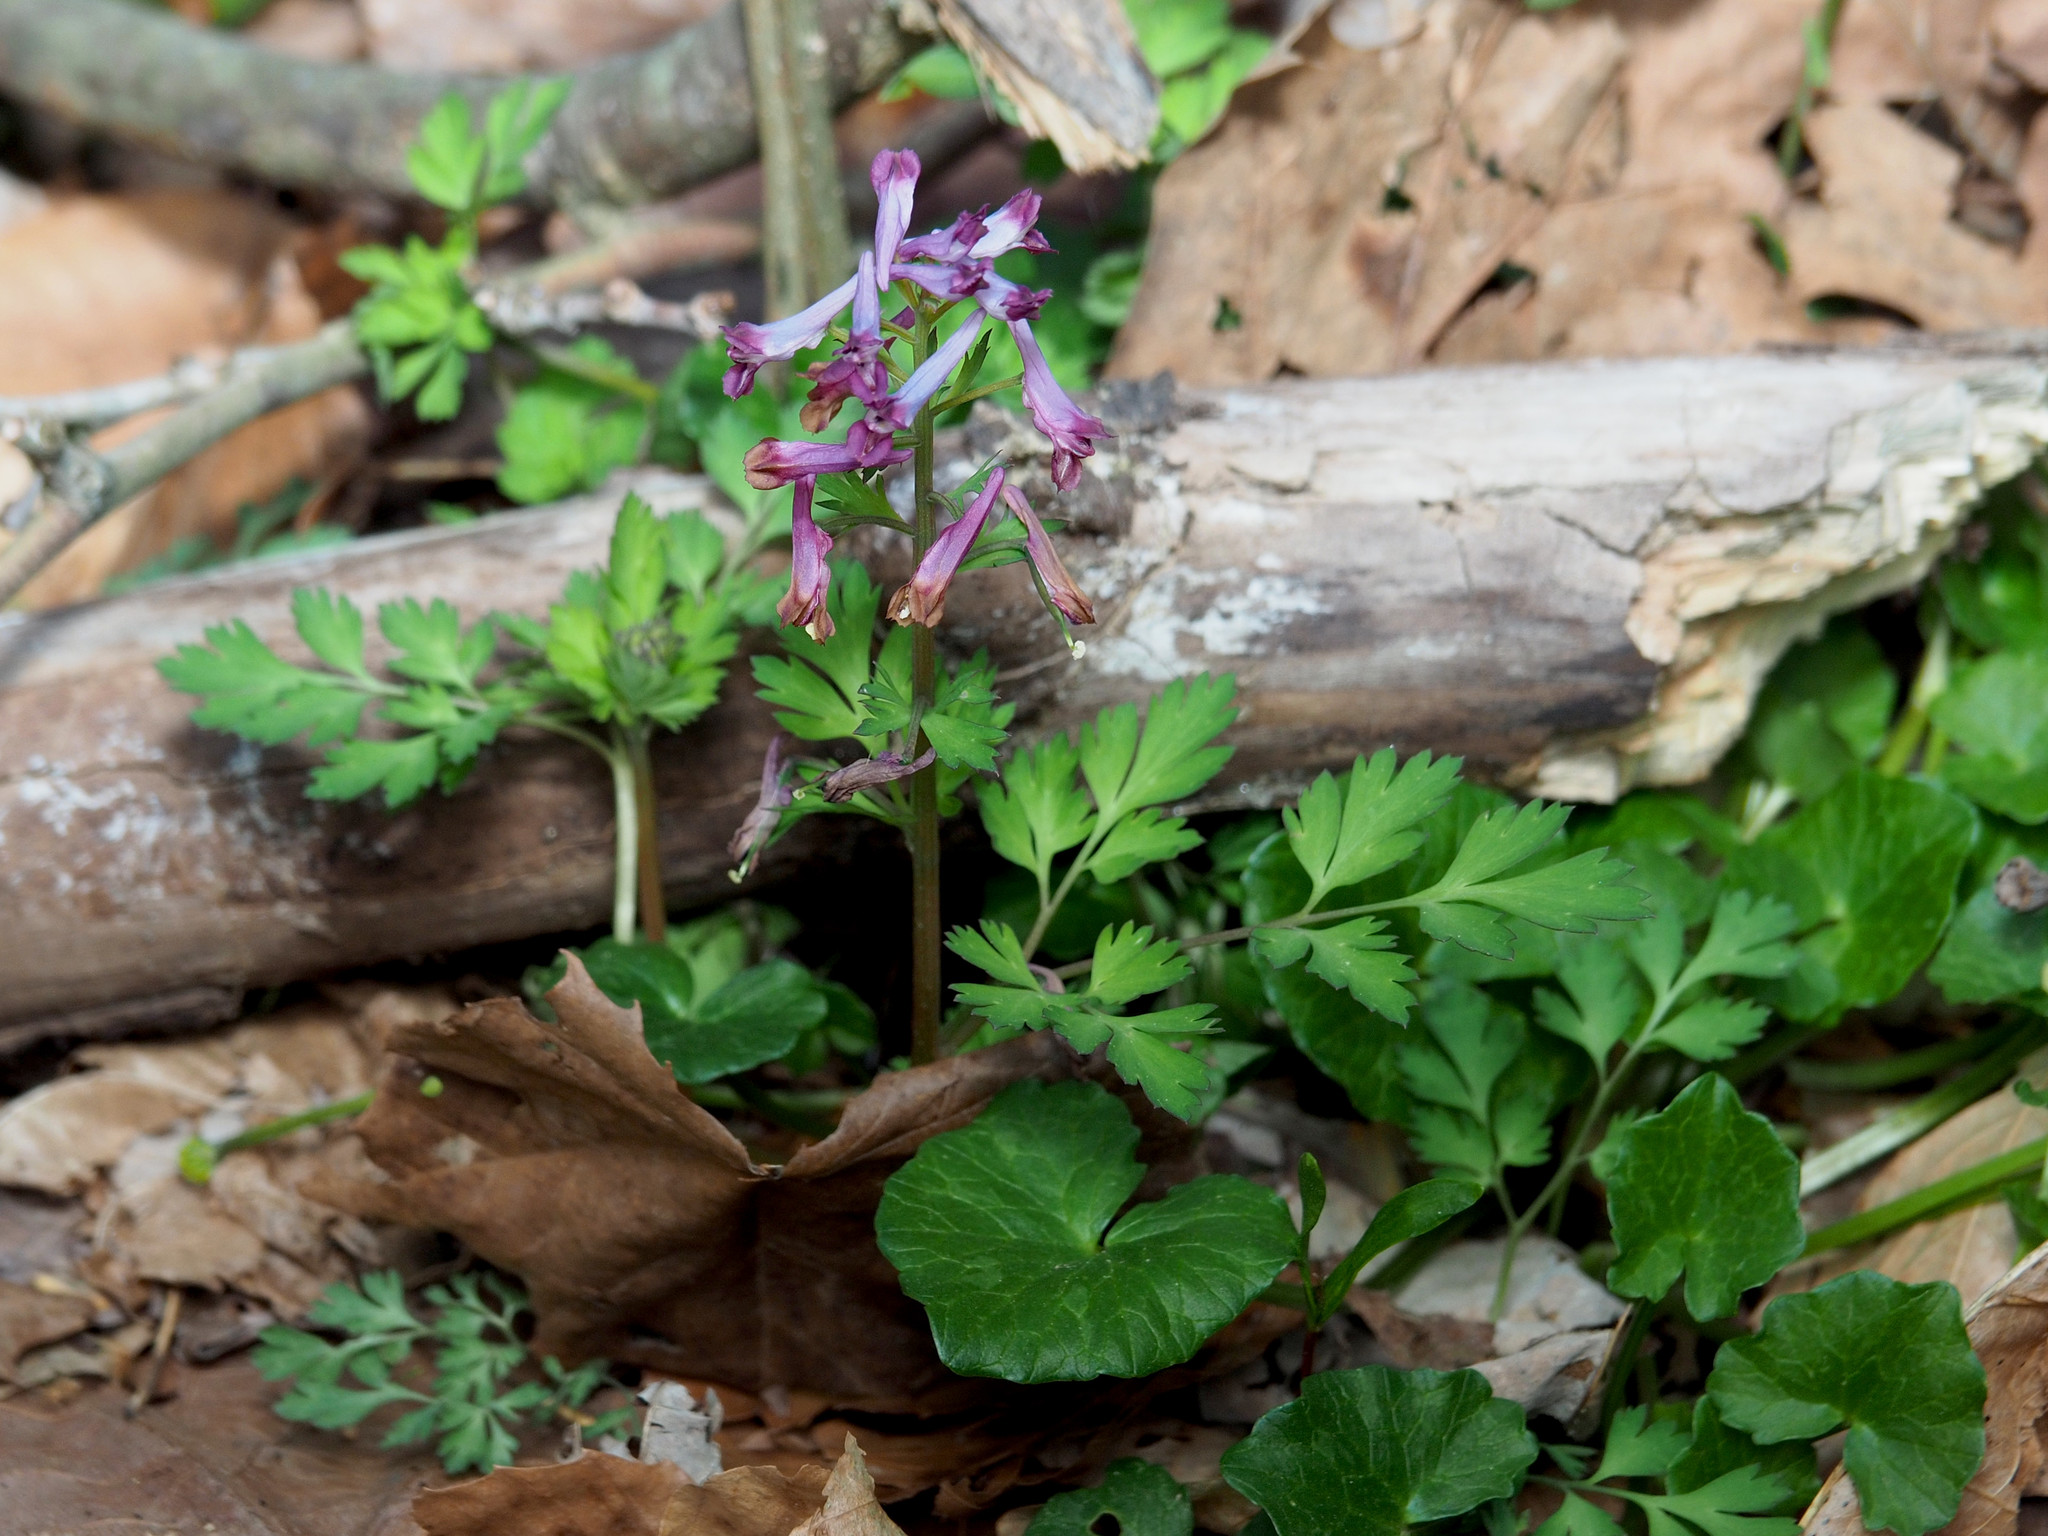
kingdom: Plantae
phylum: Tracheophyta
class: Magnoliopsida
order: Ranunculales
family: Papaveraceae
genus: Corydalis
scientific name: Corydalis incisa
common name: Incised fumewort
